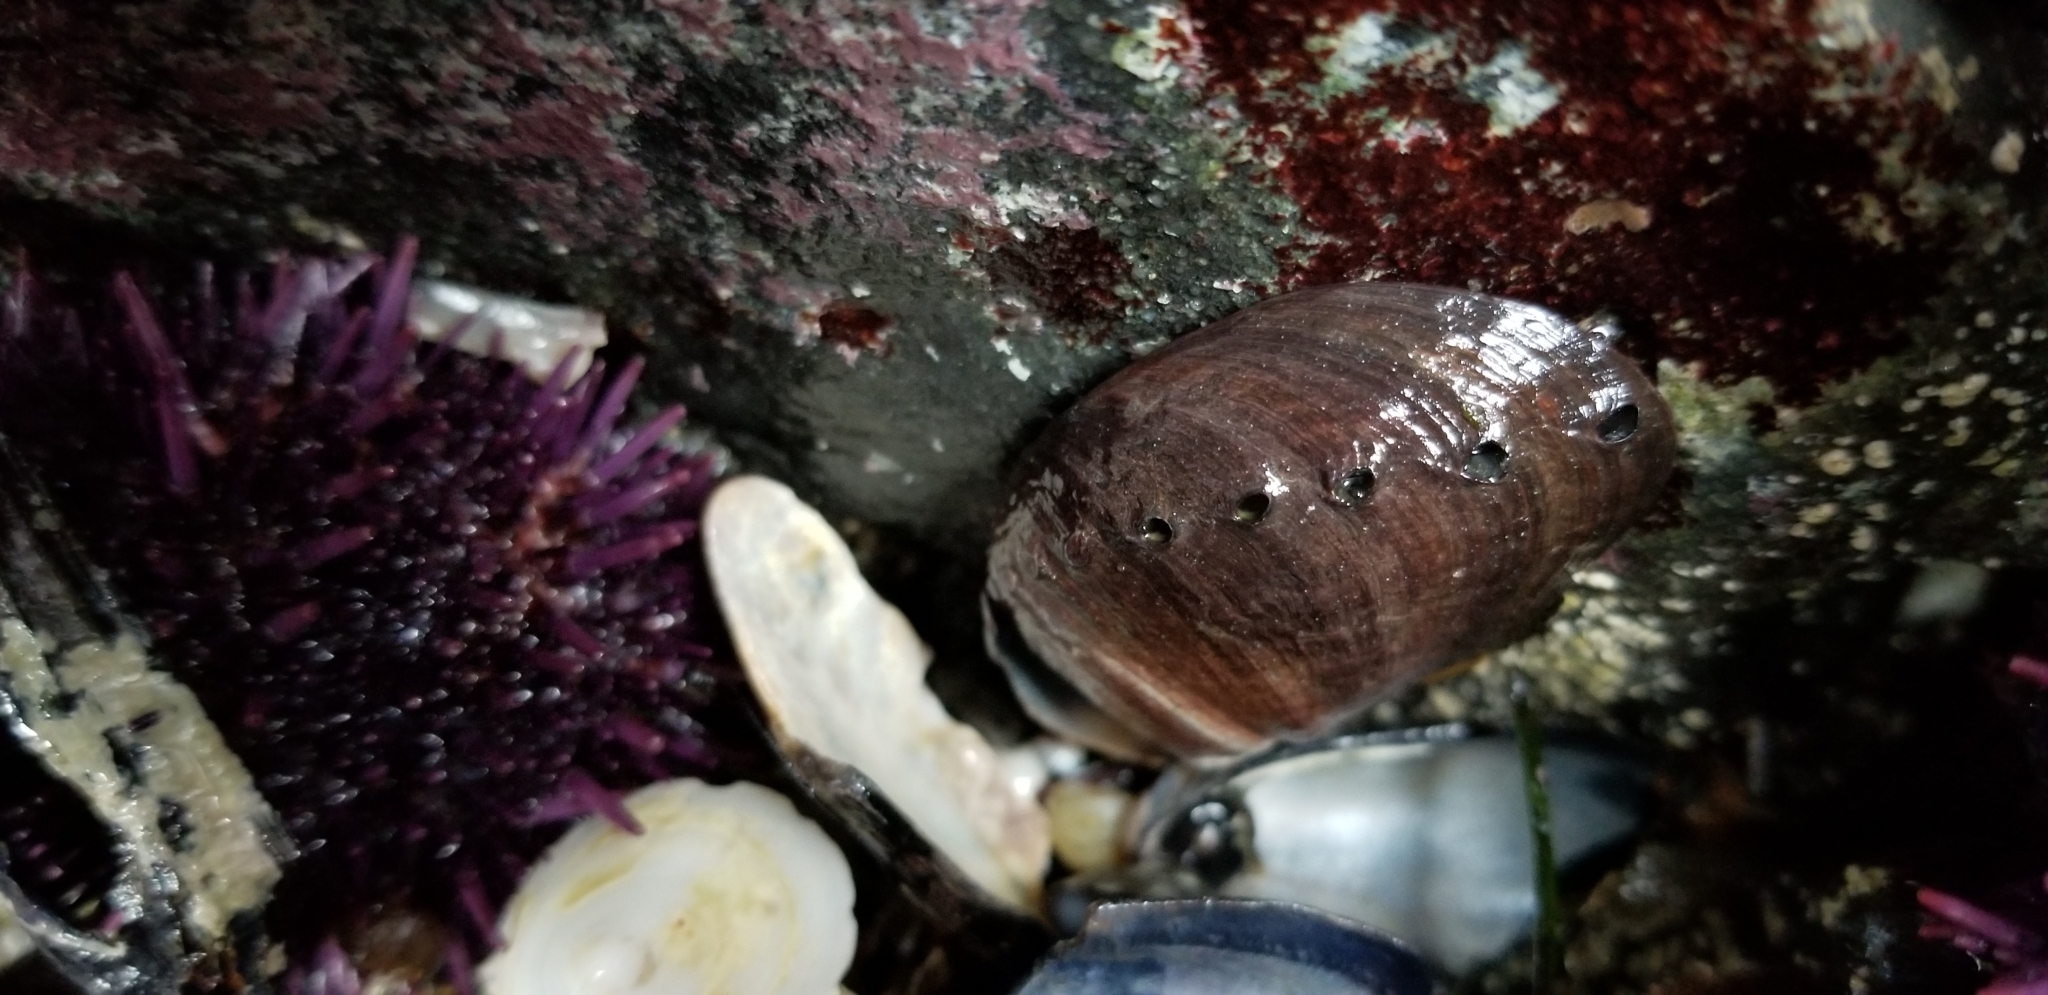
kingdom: Animalia
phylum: Mollusca
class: Gastropoda
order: Lepetellida
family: Haliotidae
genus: Haliotis
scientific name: Haliotis cracherodii
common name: Black abalone
